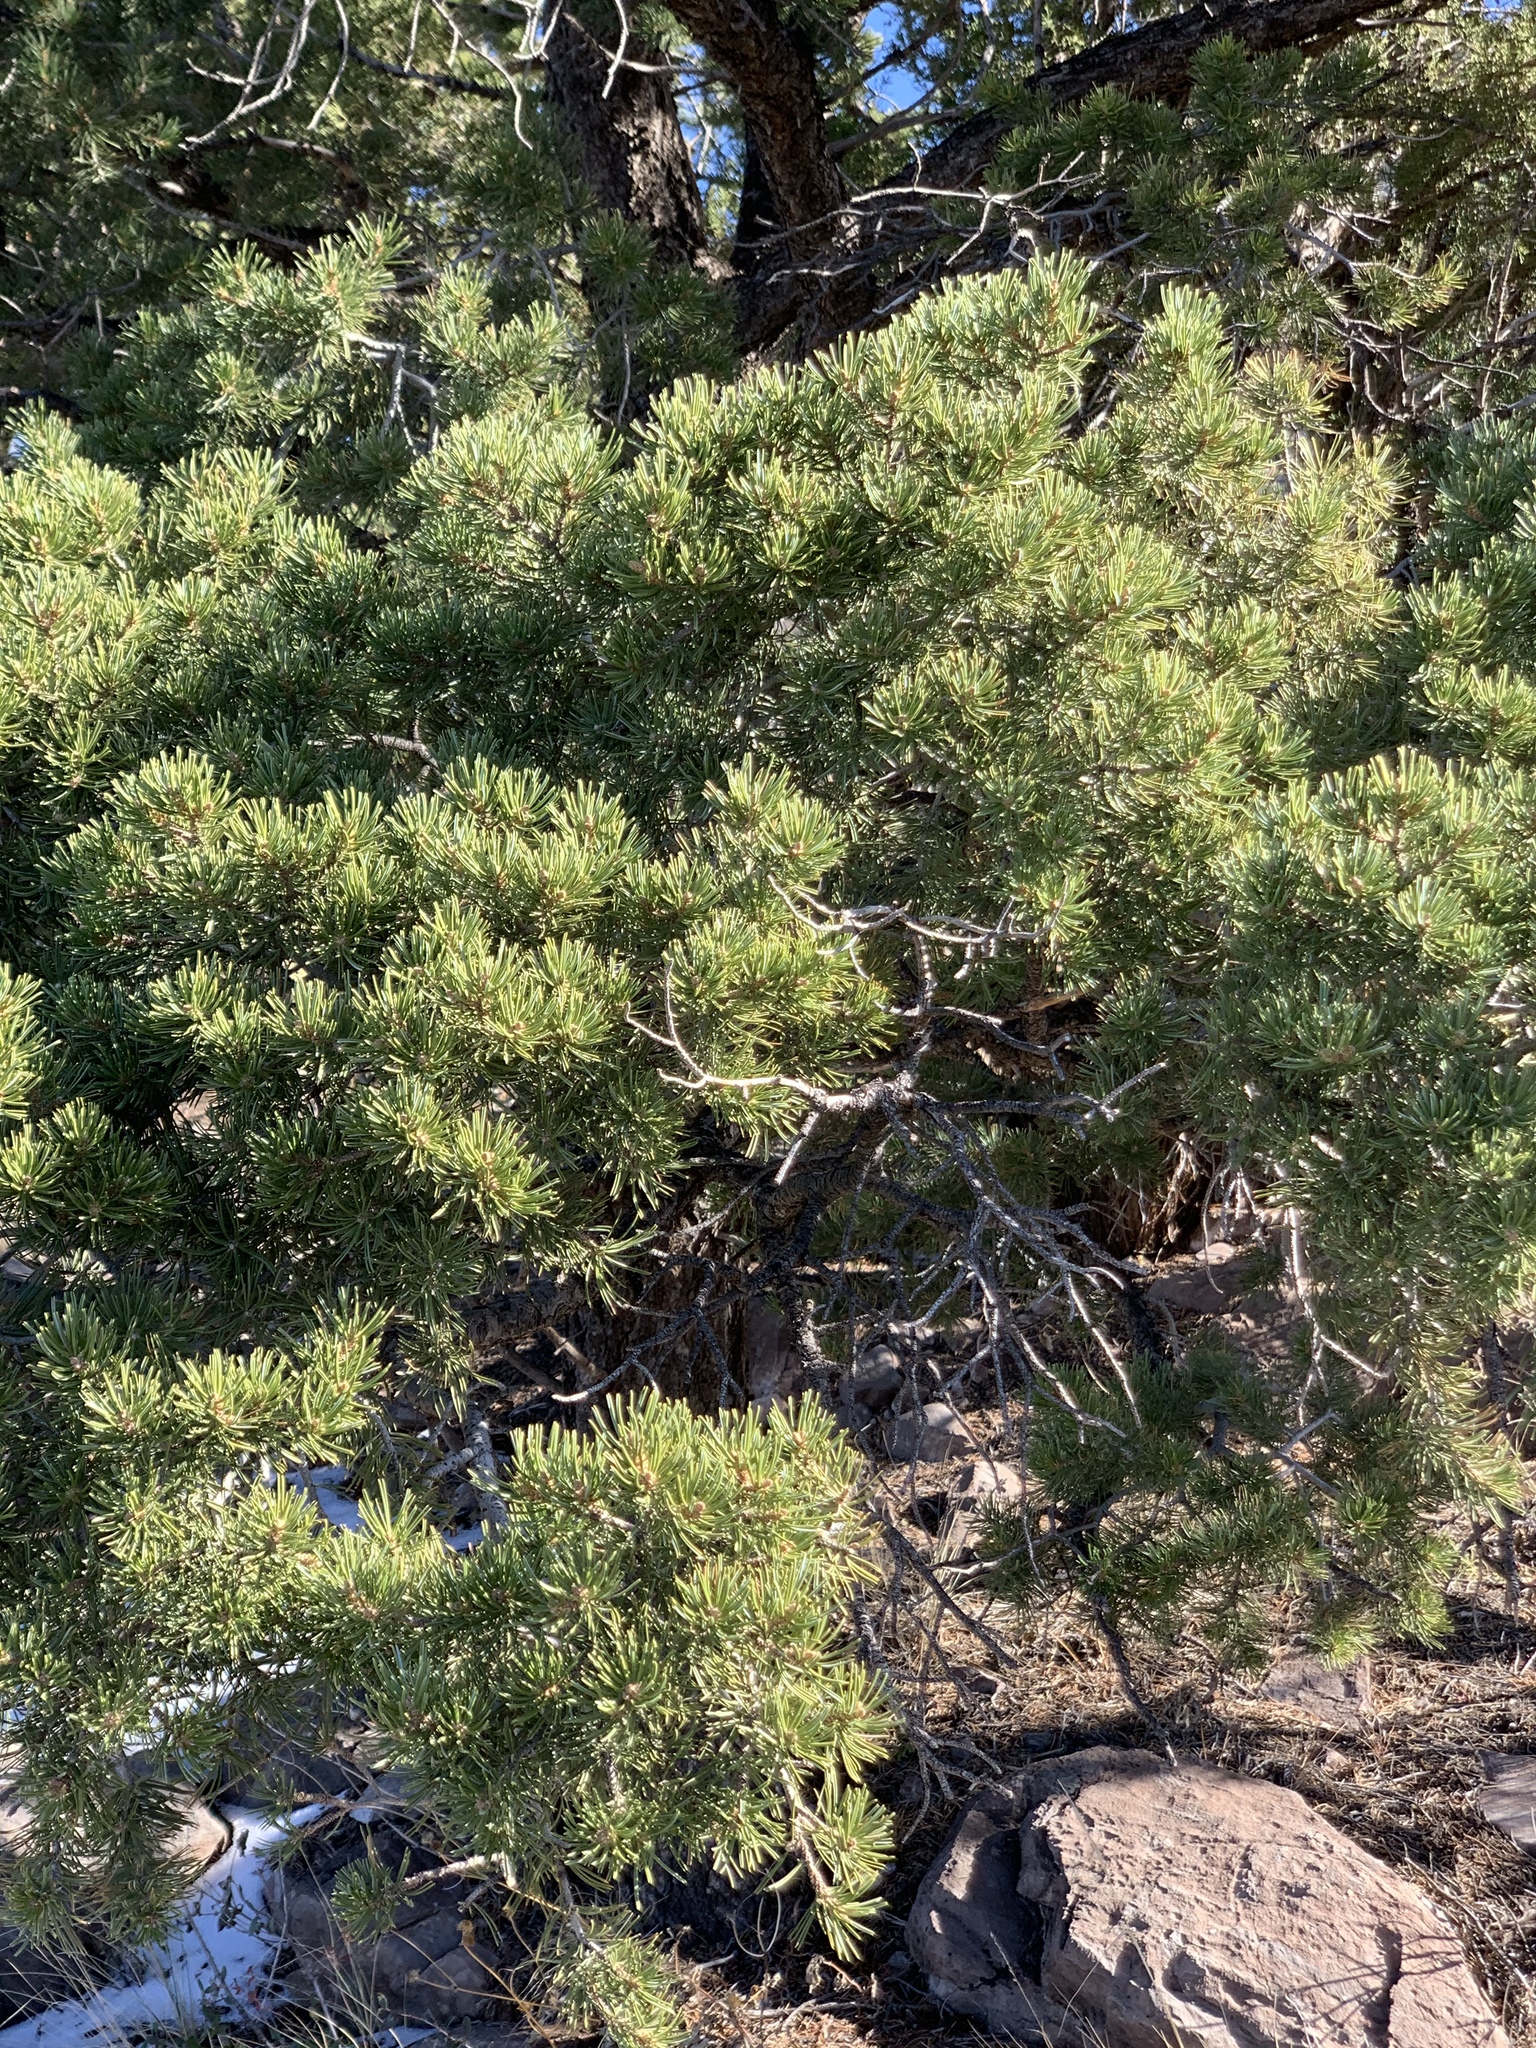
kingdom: Plantae
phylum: Tracheophyta
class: Pinopsida
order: Pinales
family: Pinaceae
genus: Pinus
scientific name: Pinus edulis
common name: Colorado pinyon
